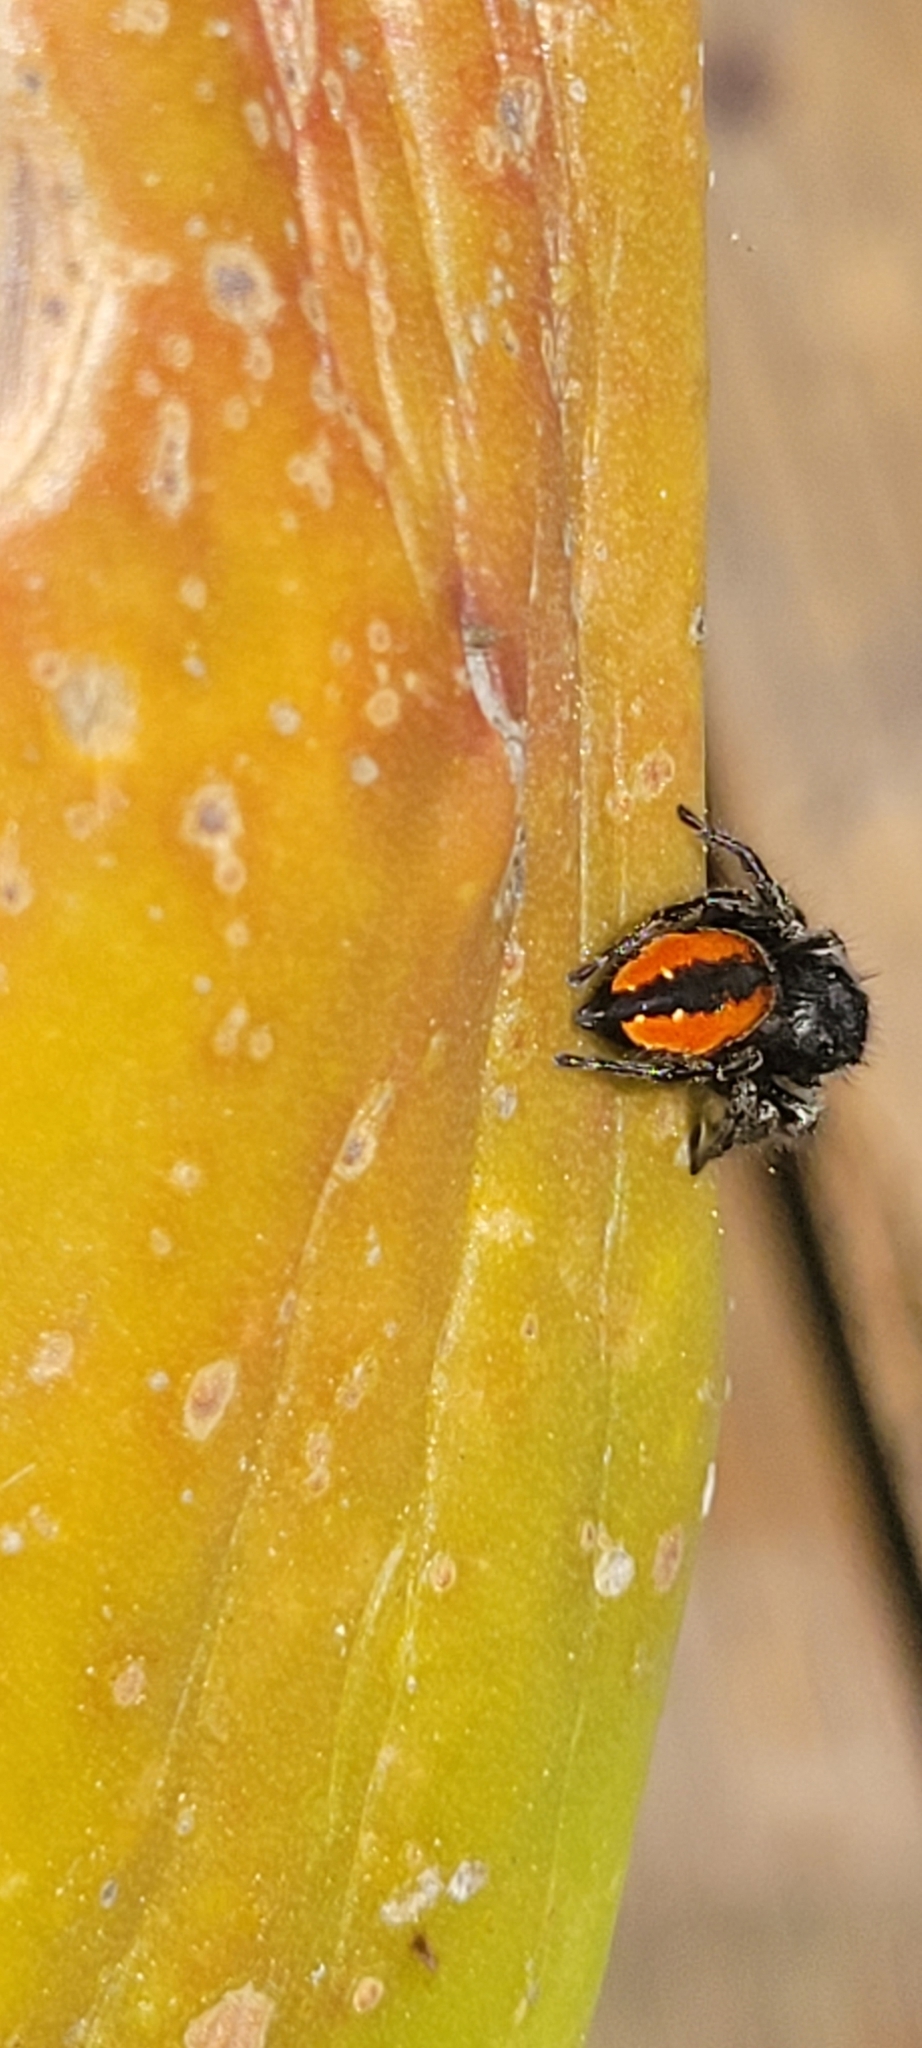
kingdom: Animalia
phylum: Arthropoda
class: Arachnida
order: Araneae
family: Salticidae
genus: Phidippus
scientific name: Phidippus johnsoni
